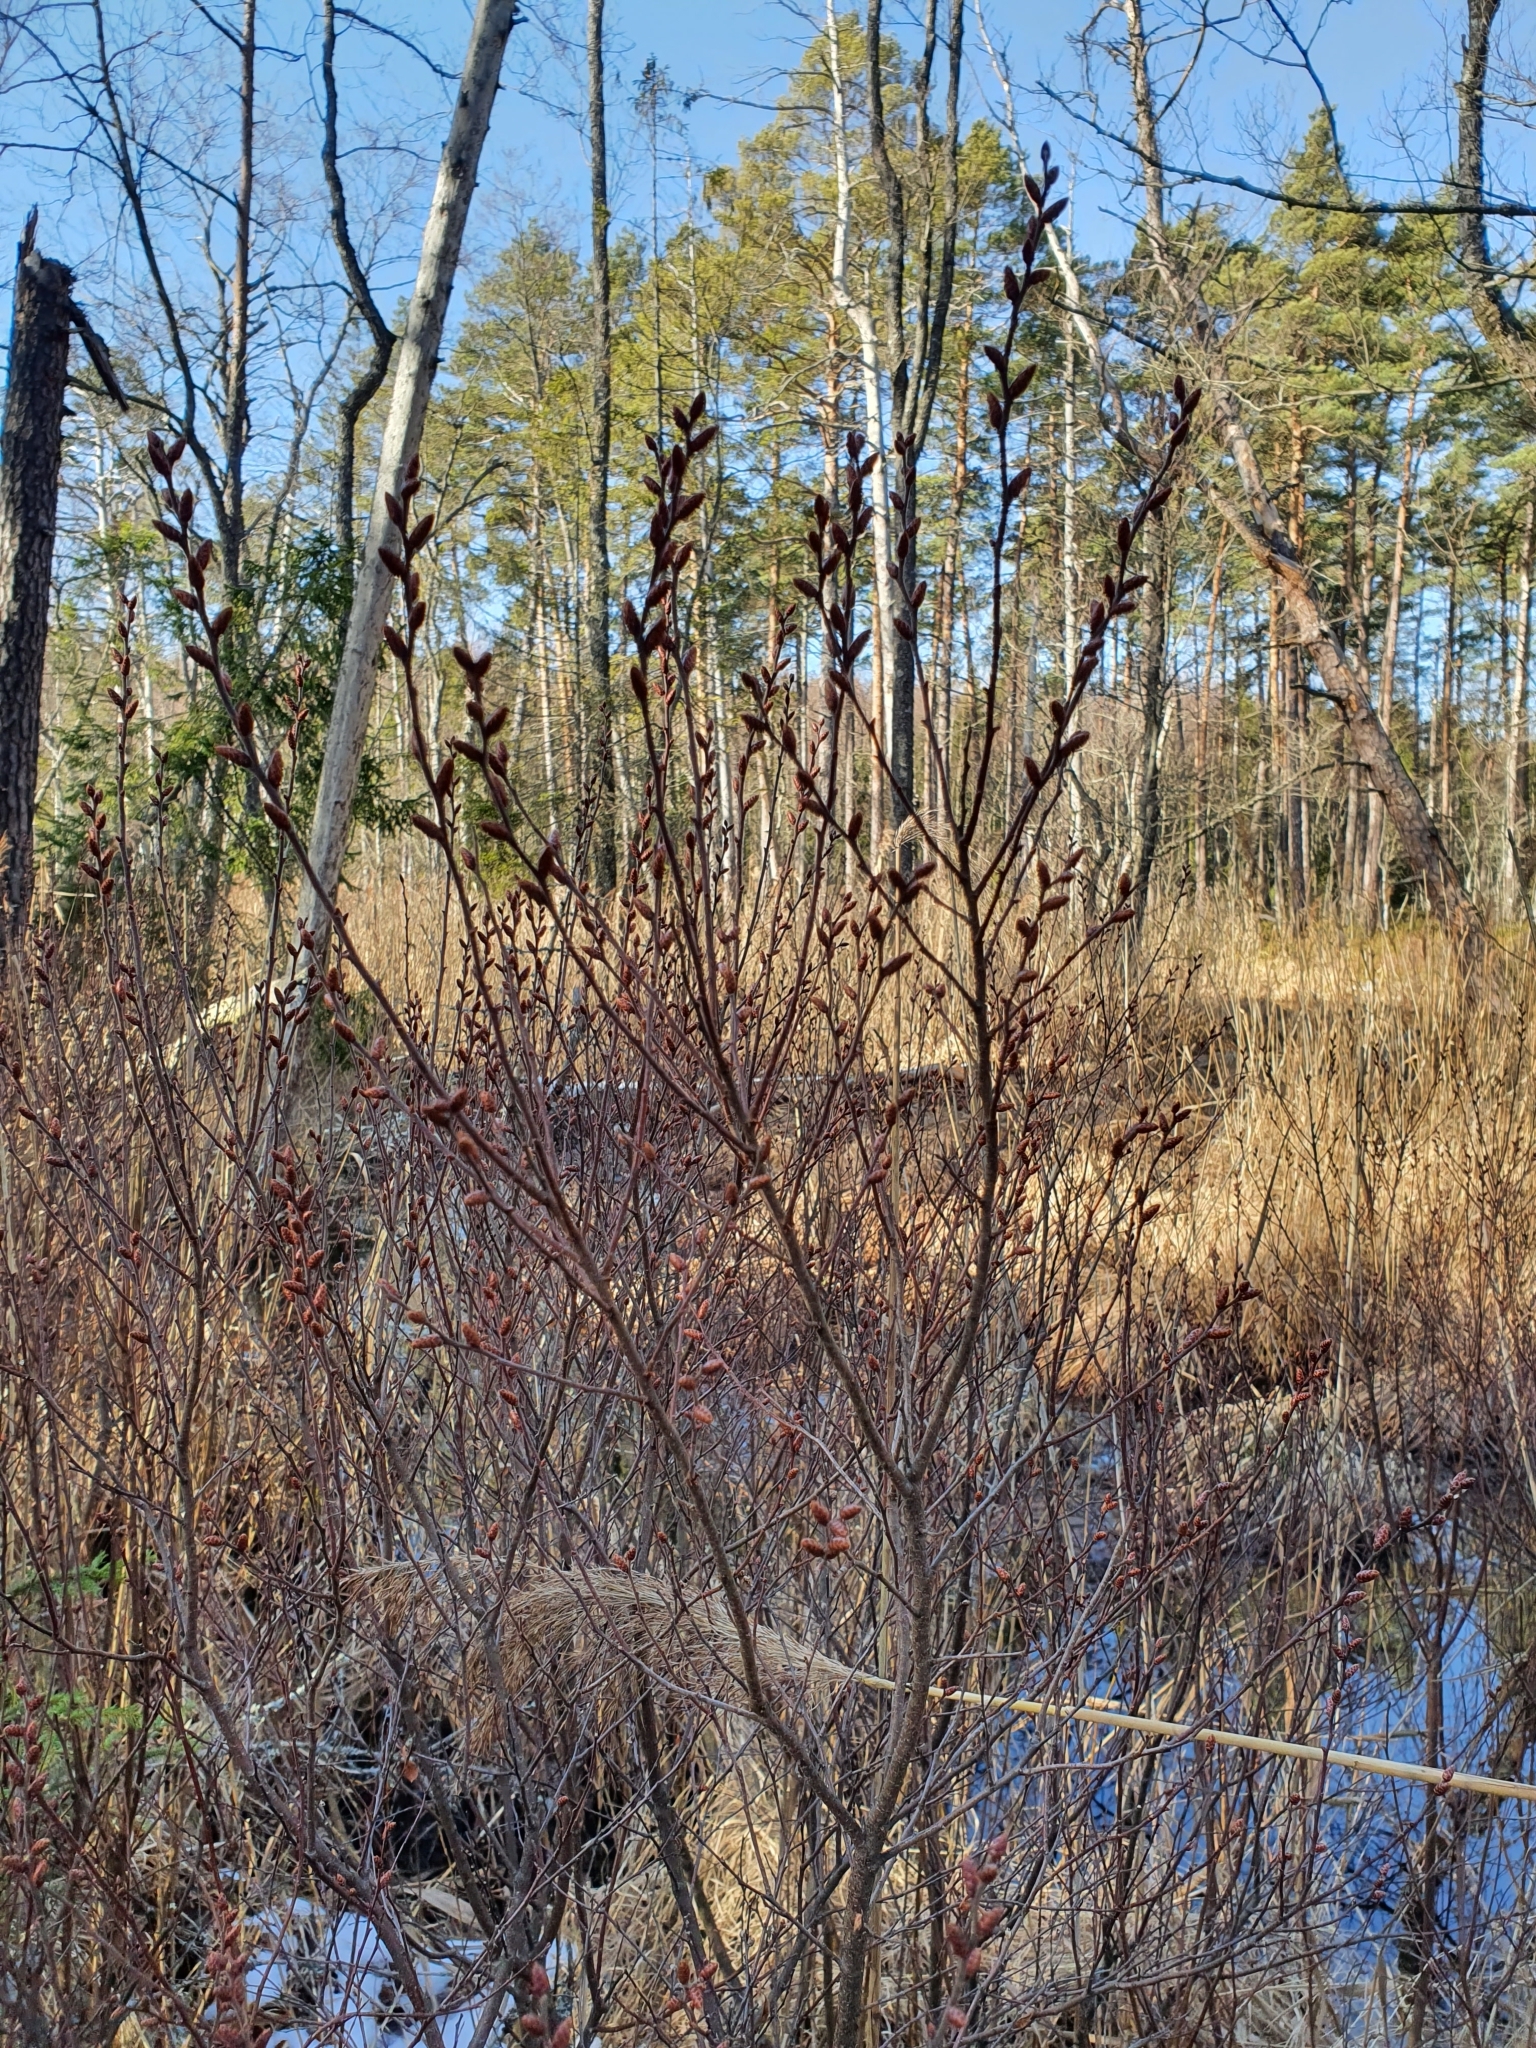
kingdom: Plantae
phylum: Tracheophyta
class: Magnoliopsida
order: Fagales
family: Myricaceae
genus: Myrica
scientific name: Myrica gale
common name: Sweet gale
